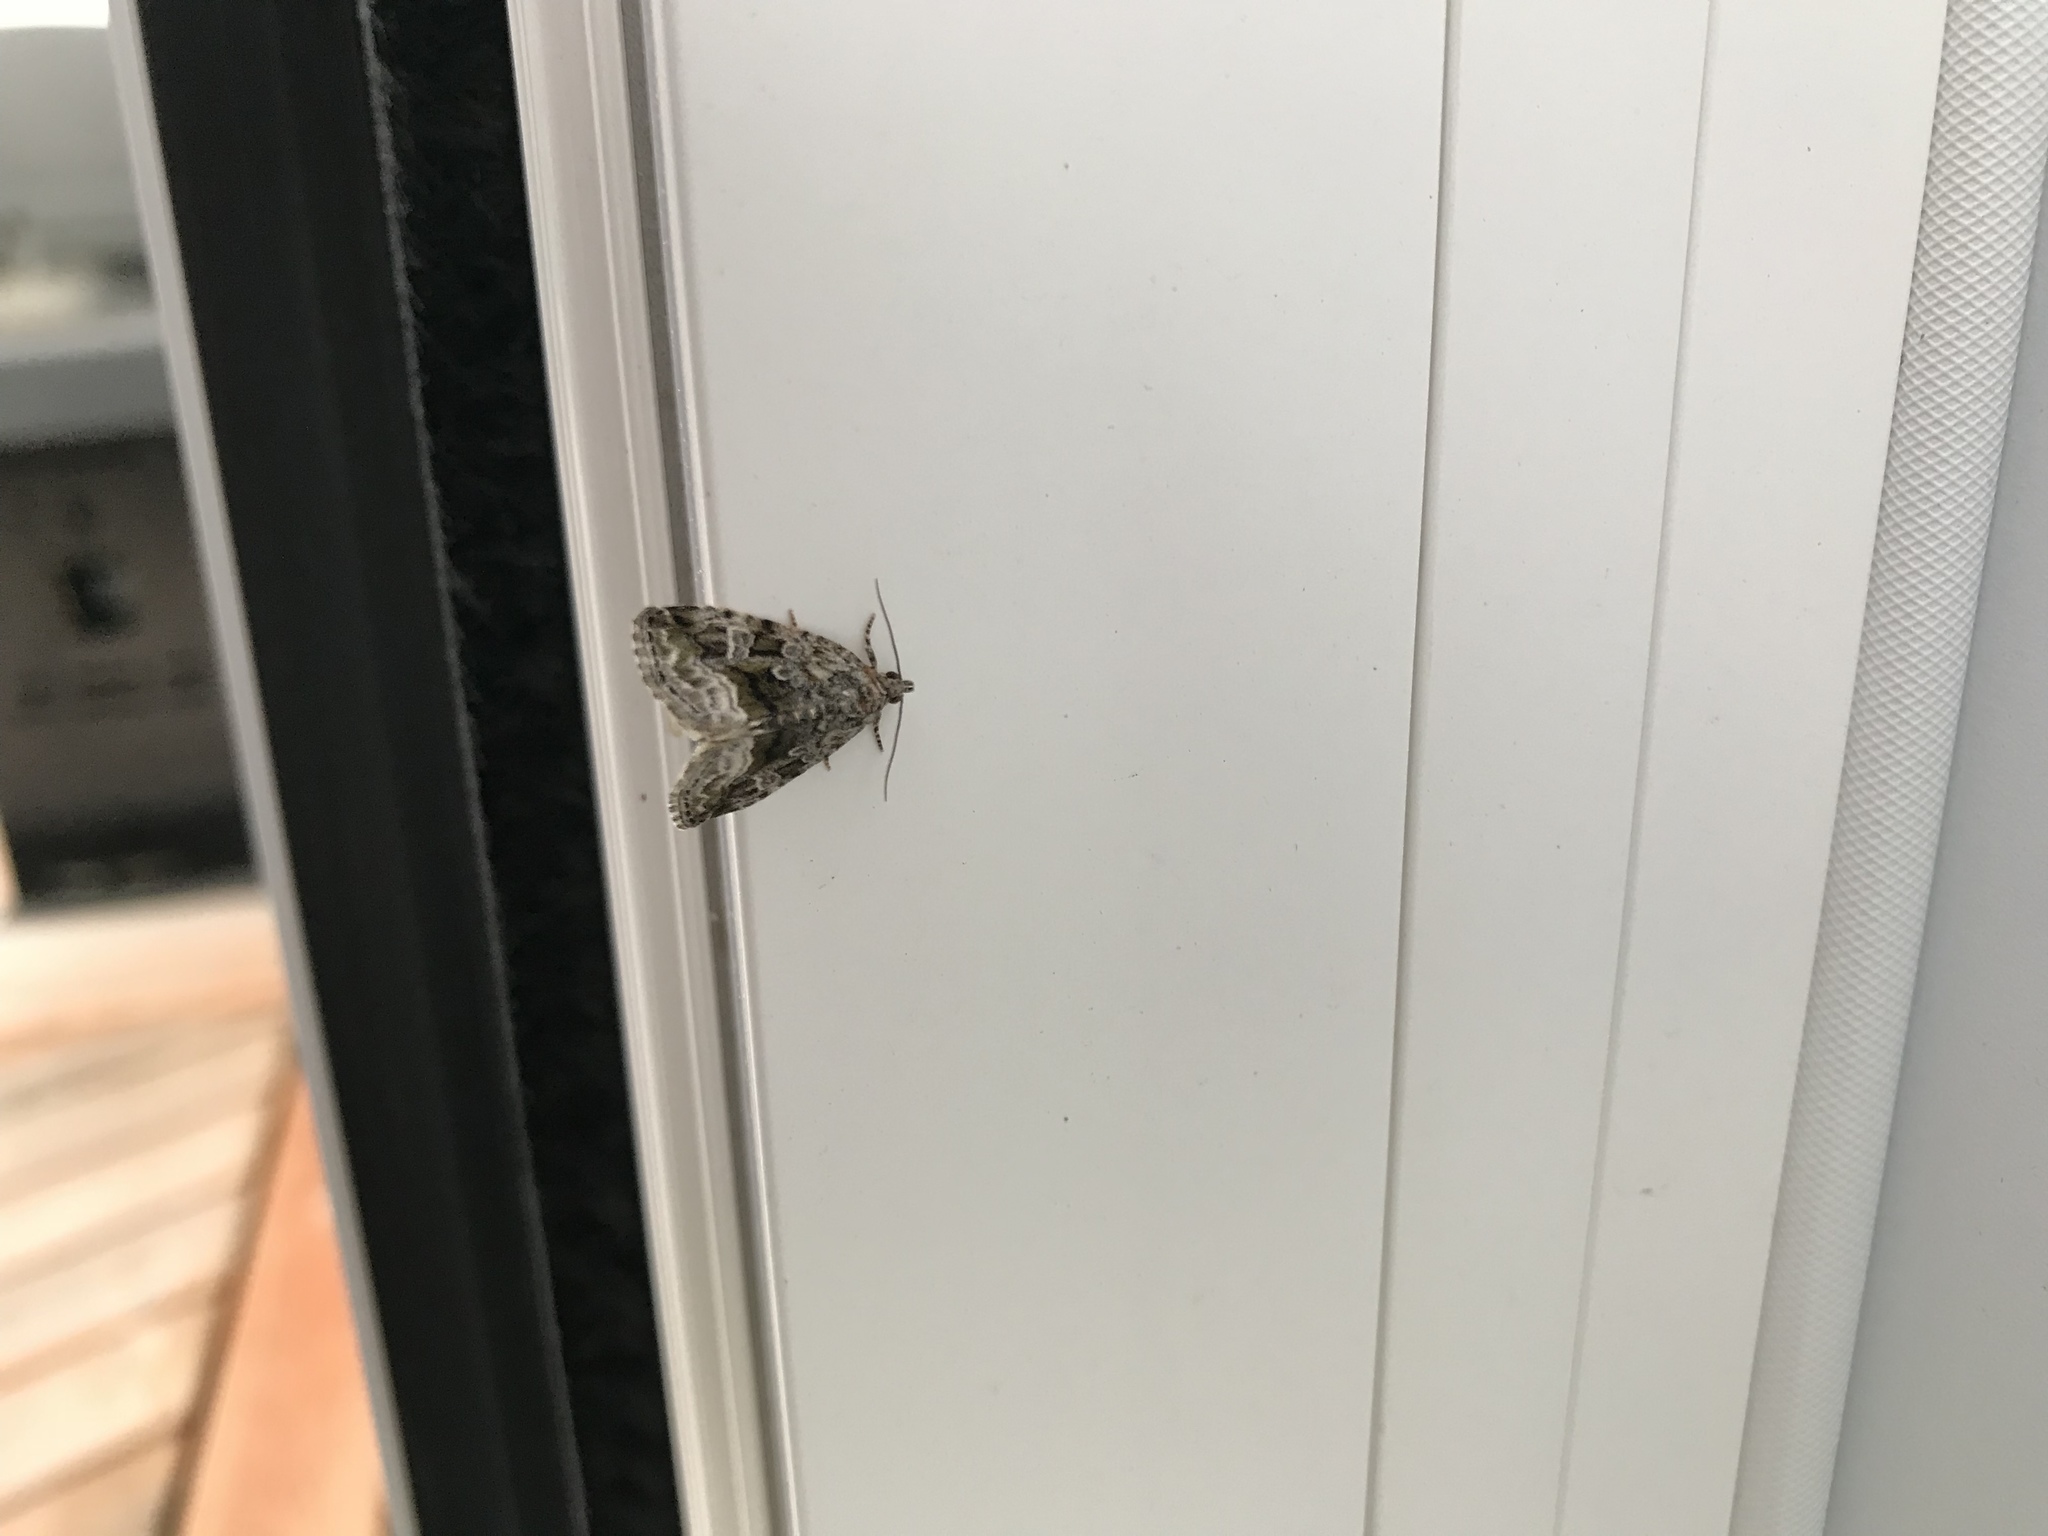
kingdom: Animalia
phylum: Arthropoda
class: Insecta
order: Lepidoptera
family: Noctuidae
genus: Protodeltote
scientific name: Protodeltote muscosula
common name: Large mossy glyph
